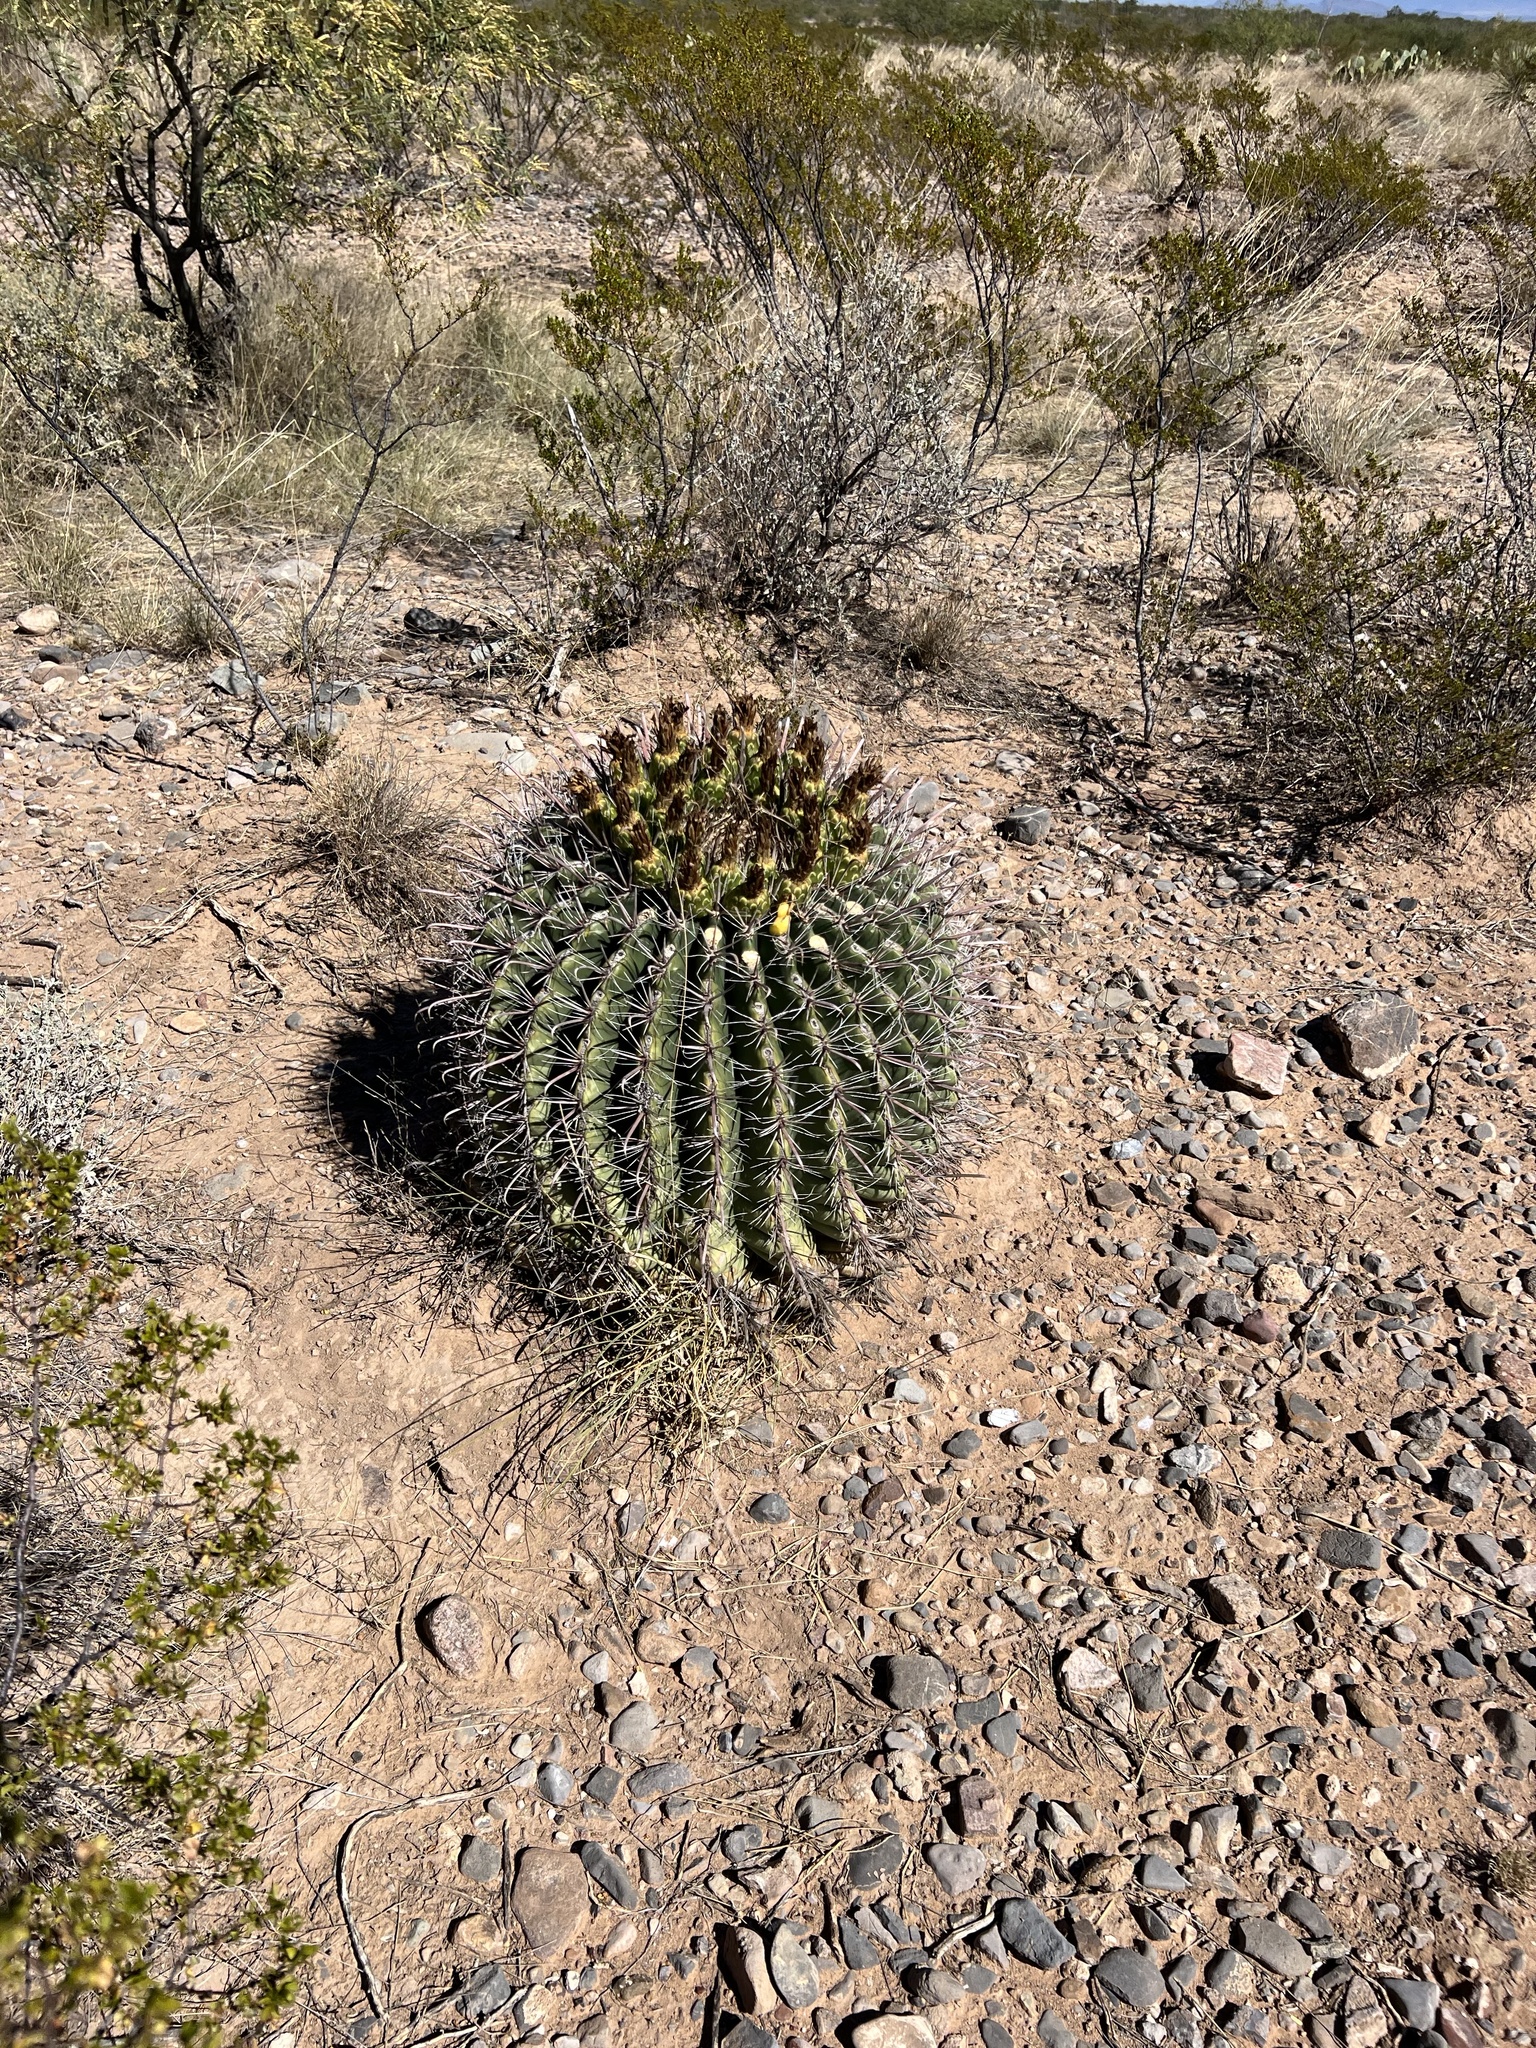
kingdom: Plantae
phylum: Tracheophyta
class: Magnoliopsida
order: Caryophyllales
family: Cactaceae
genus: Ferocactus
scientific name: Ferocactus wislizeni
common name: Candy barrel cactus
